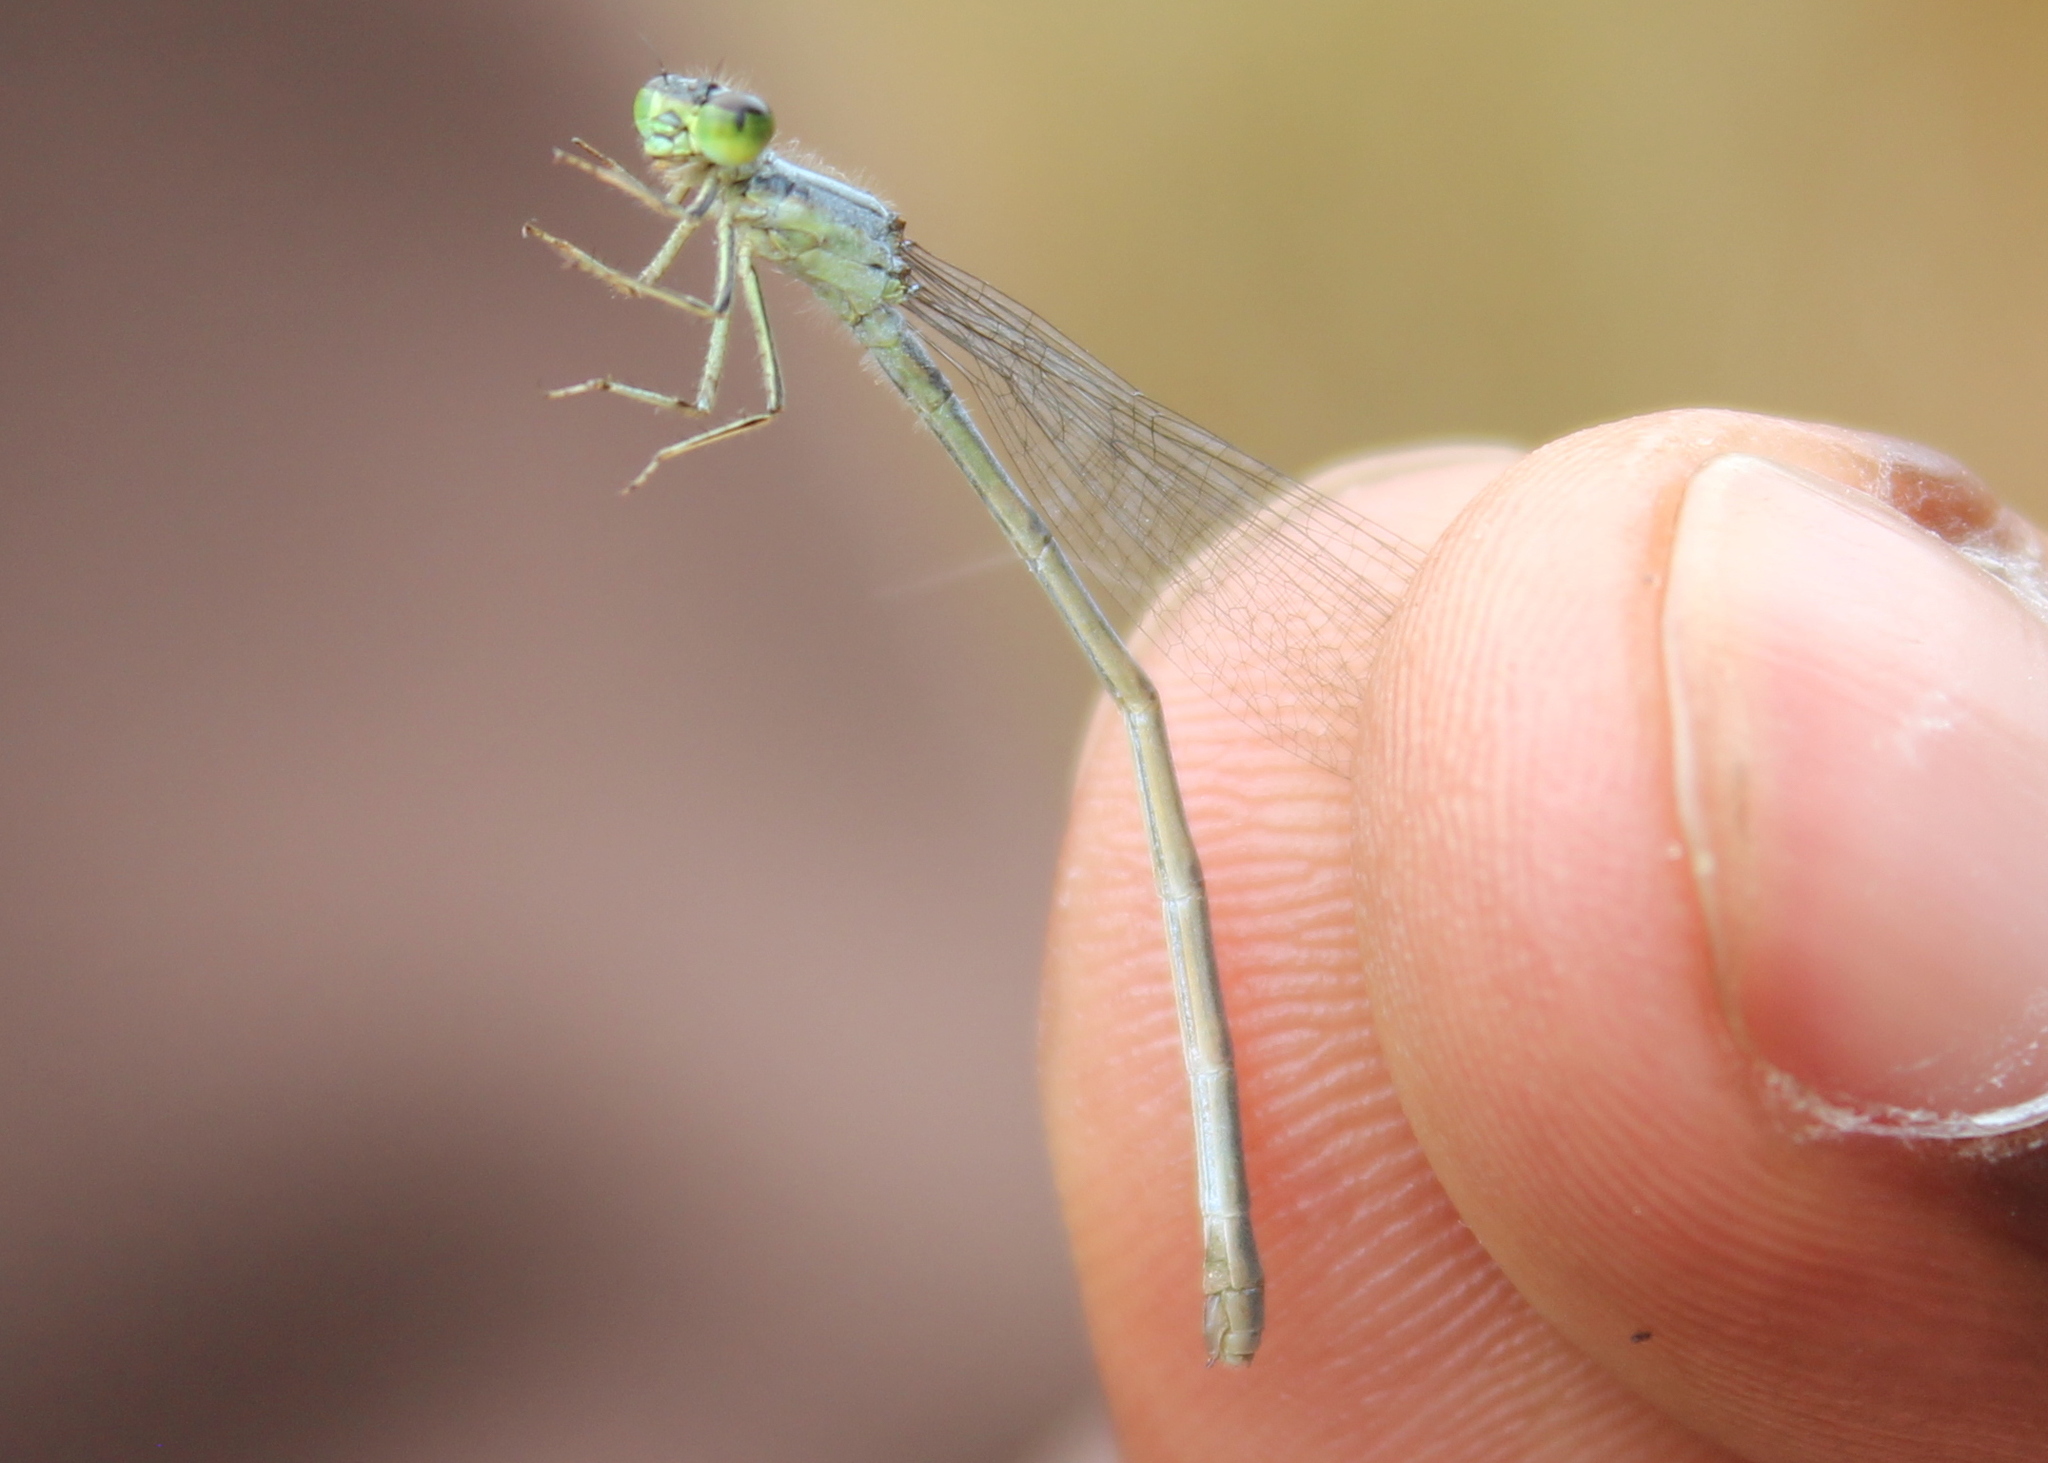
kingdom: Animalia
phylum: Arthropoda
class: Insecta
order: Odonata
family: Coenagrionidae
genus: Ischnura
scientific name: Ischnura verticalis
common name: Eastern forktail
